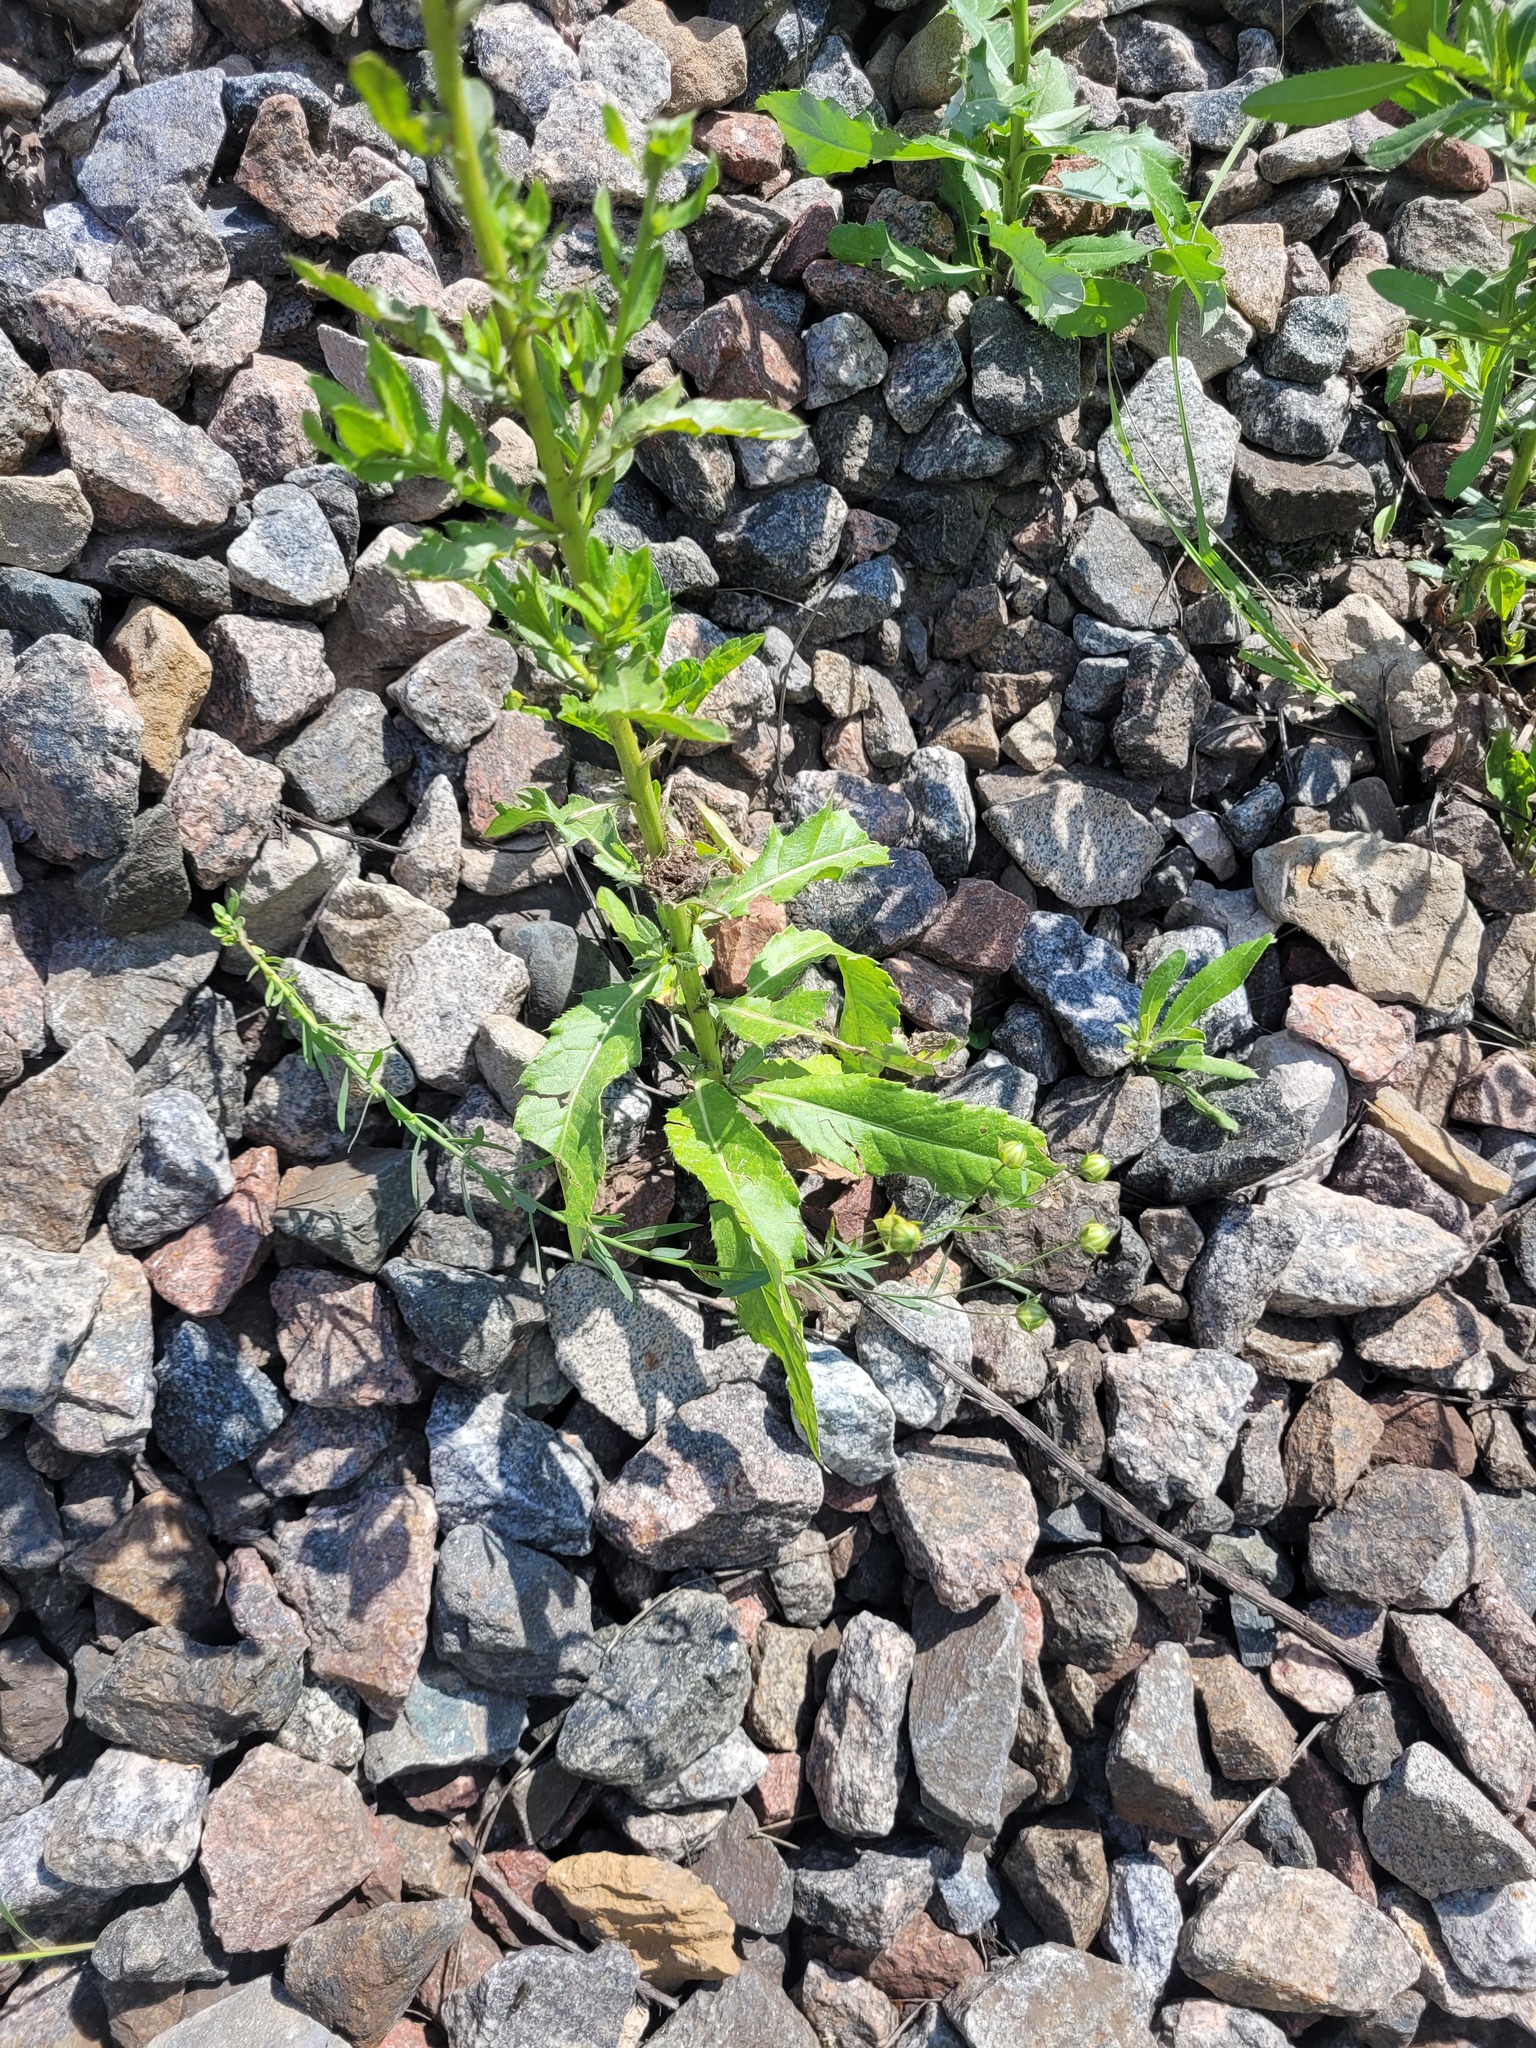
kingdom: Plantae
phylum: Tracheophyta
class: Magnoliopsida
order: Malpighiales
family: Linaceae
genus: Linum
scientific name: Linum usitatissimum
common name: Flax
